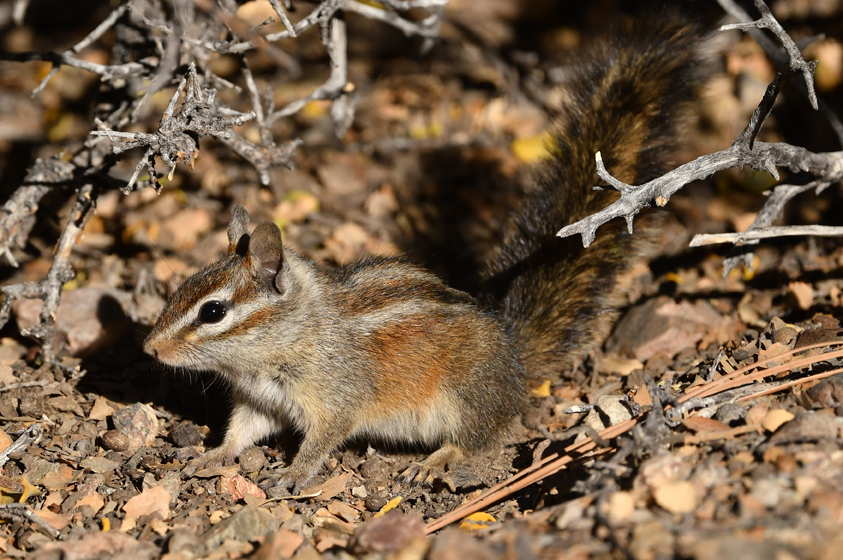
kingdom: Animalia
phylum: Chordata
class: Mammalia
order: Rodentia
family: Sciuridae
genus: Tamias
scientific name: Tamias merriami
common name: Merriam's chipmunk
